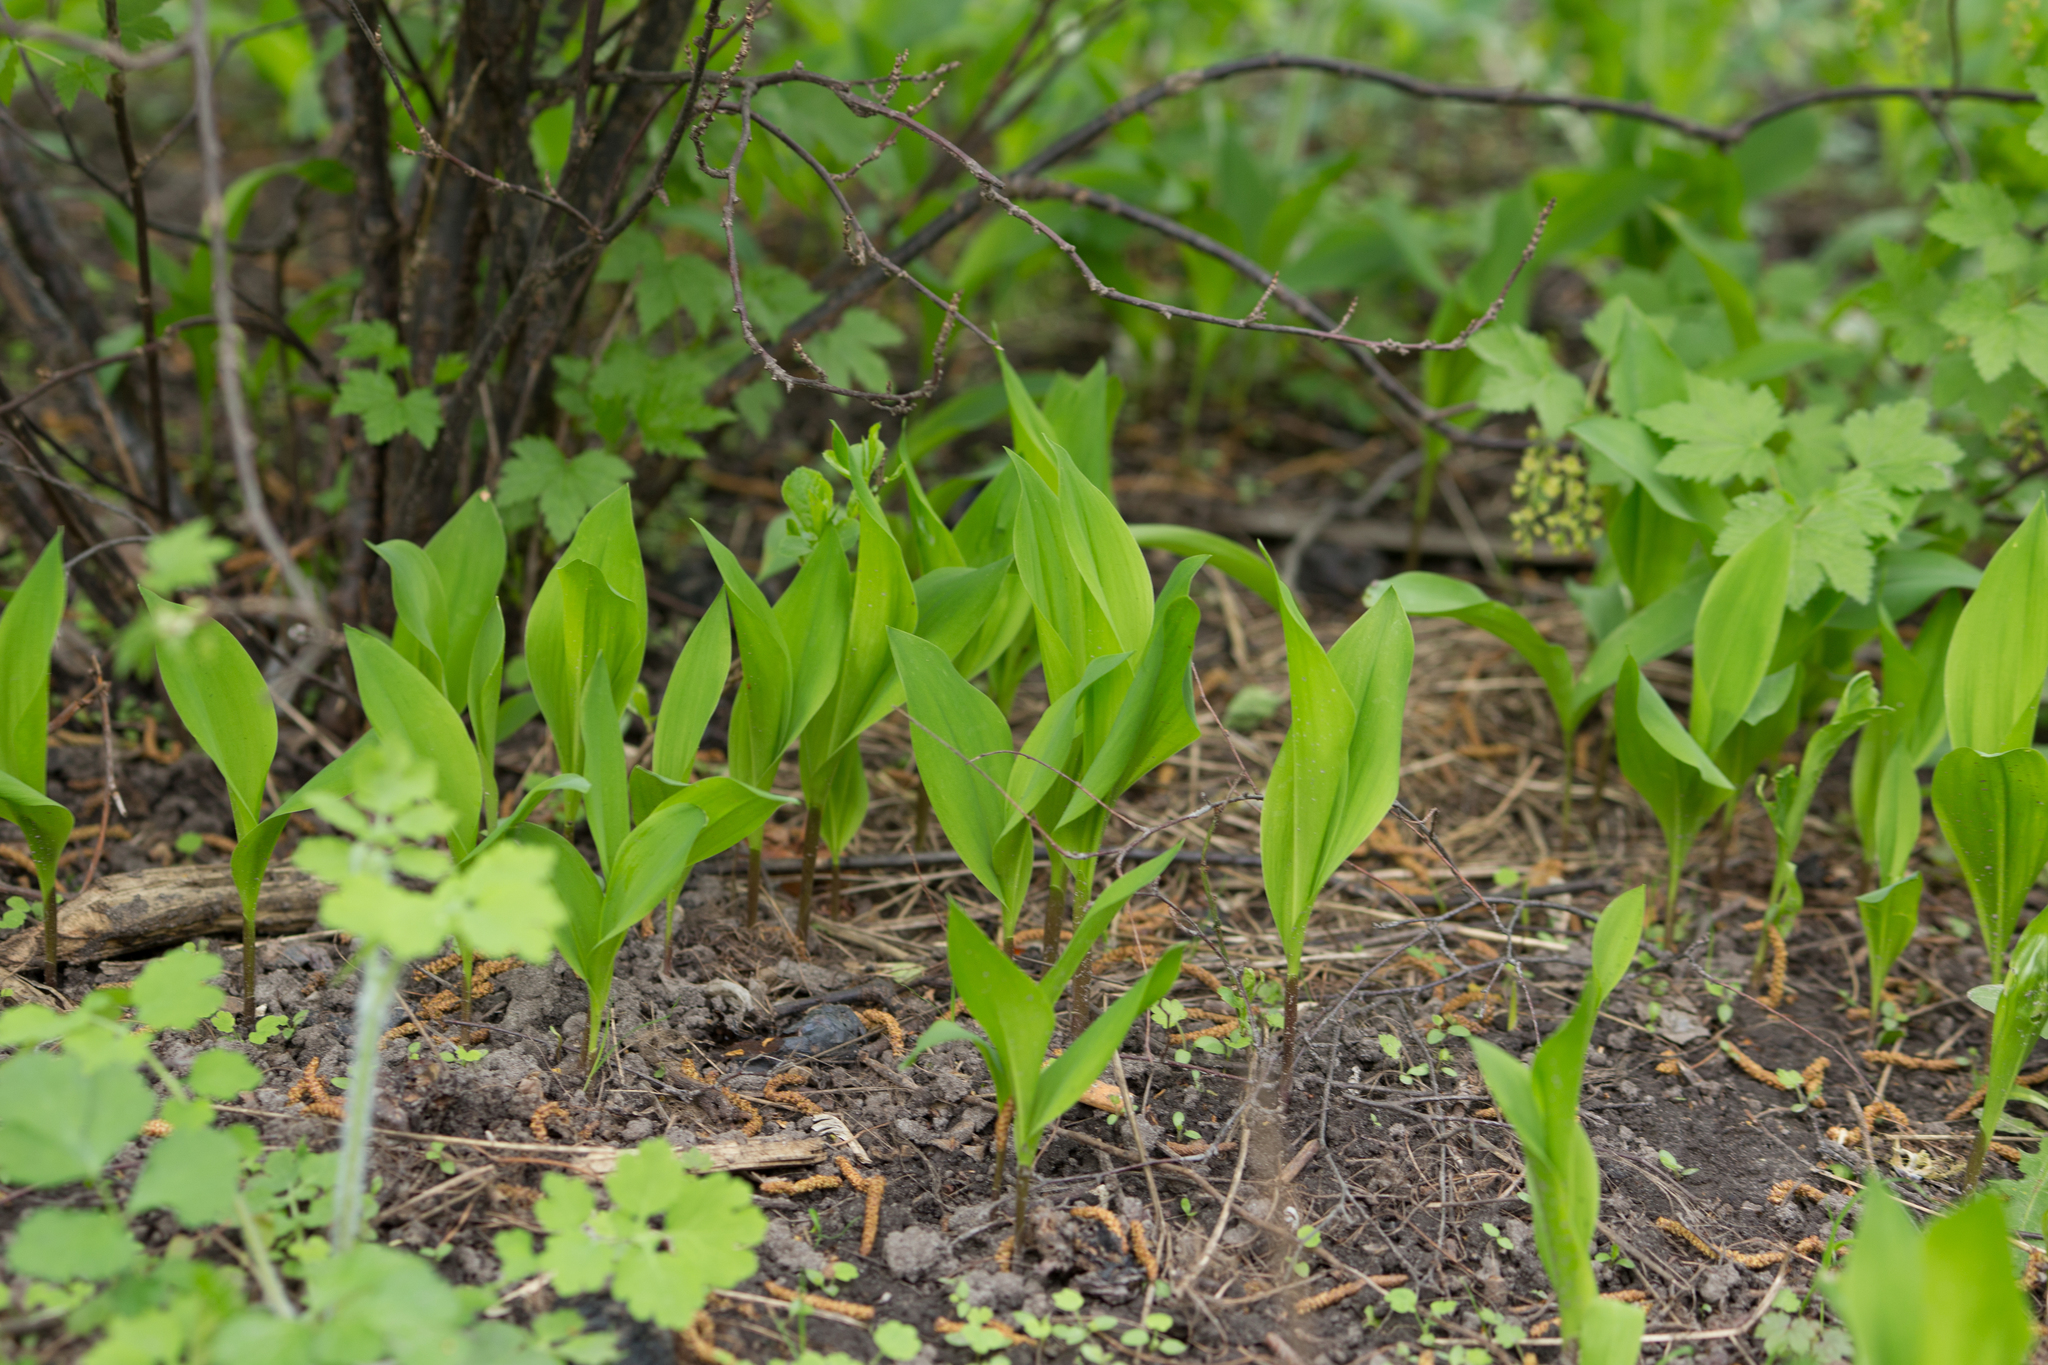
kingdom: Plantae
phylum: Tracheophyta
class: Liliopsida
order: Asparagales
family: Asparagaceae
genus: Convallaria
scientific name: Convallaria majalis
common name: Lily-of-the-valley
